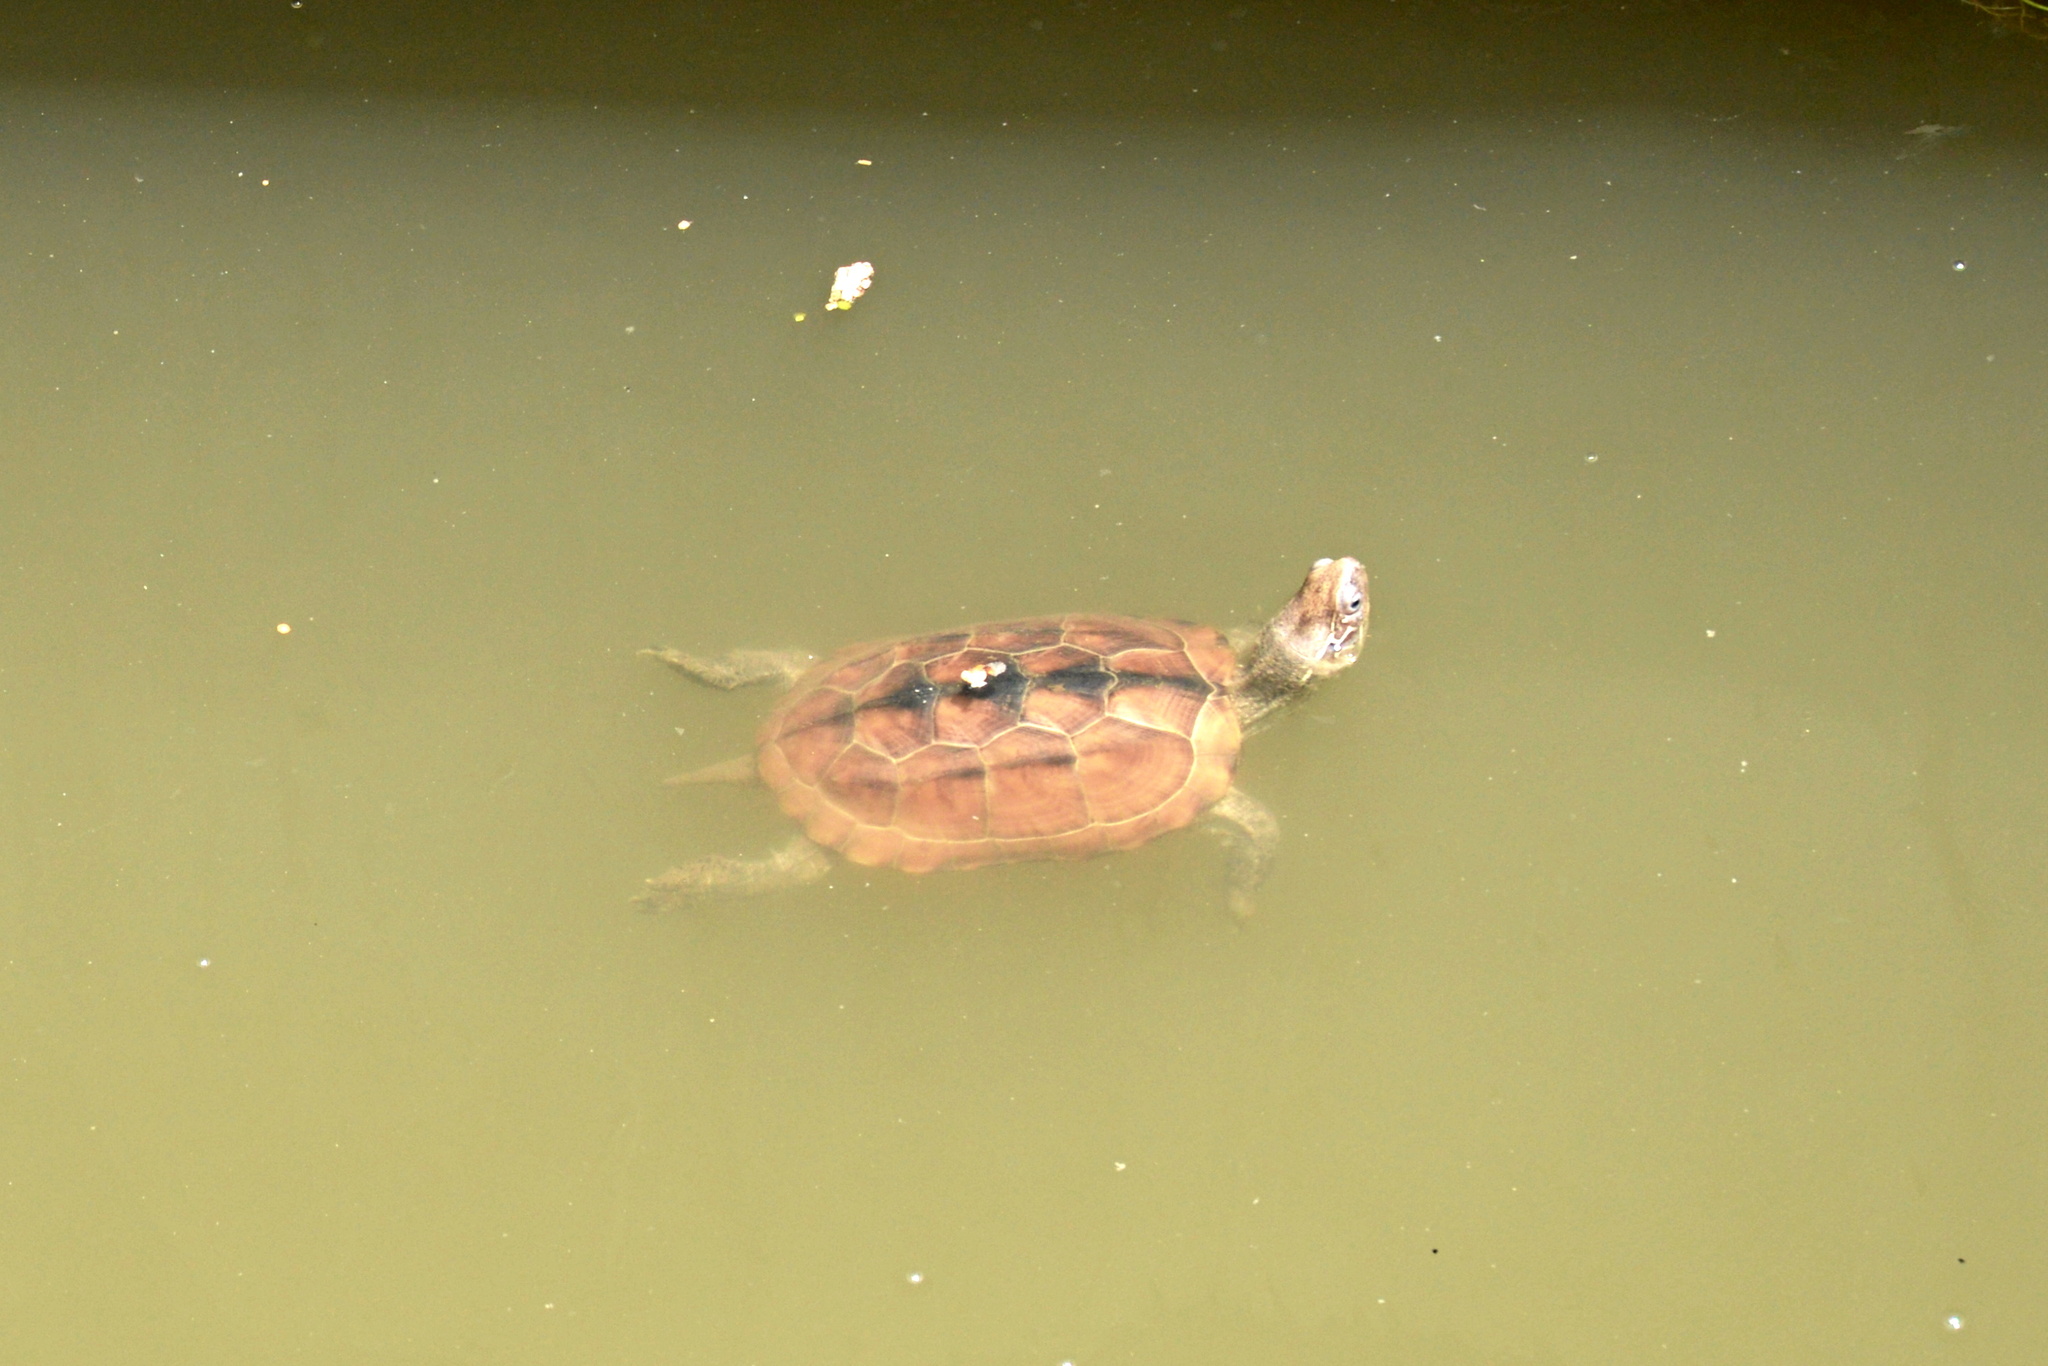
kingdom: Animalia
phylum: Chordata
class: Testudines
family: Geoemydidae
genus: Mauremys
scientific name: Mauremys reevesii
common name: Chinese pond turtle
